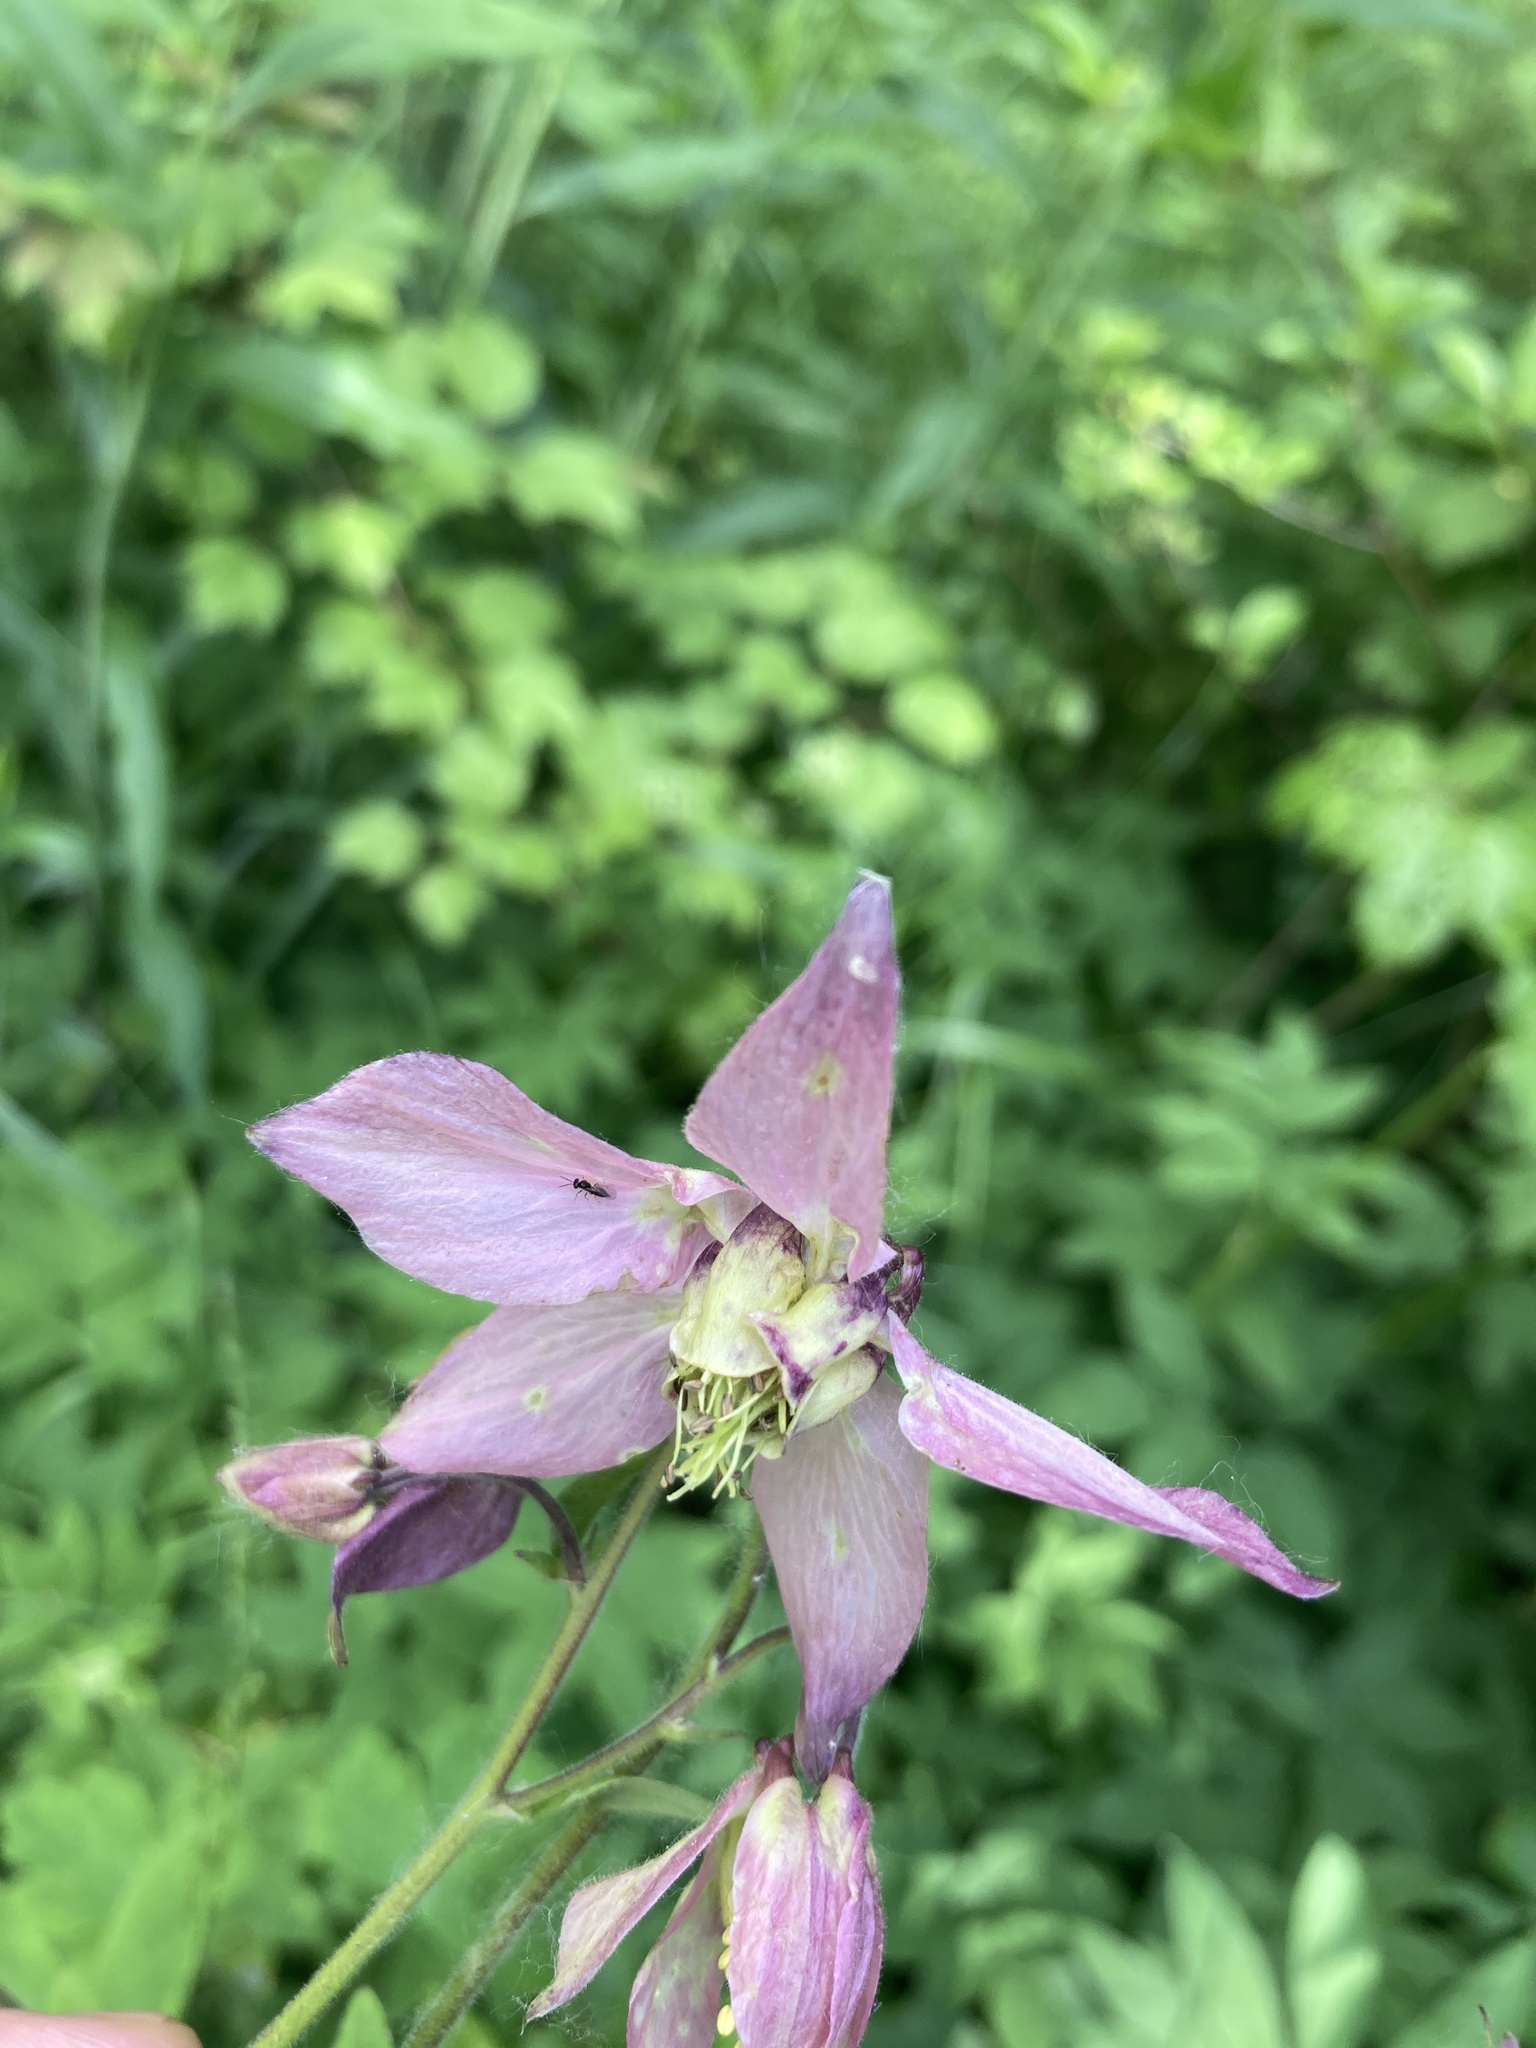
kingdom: Plantae
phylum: Tracheophyta
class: Magnoliopsida
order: Ranunculales
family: Ranunculaceae
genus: Aquilegia
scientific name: Aquilegia vulgaris
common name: Columbine
